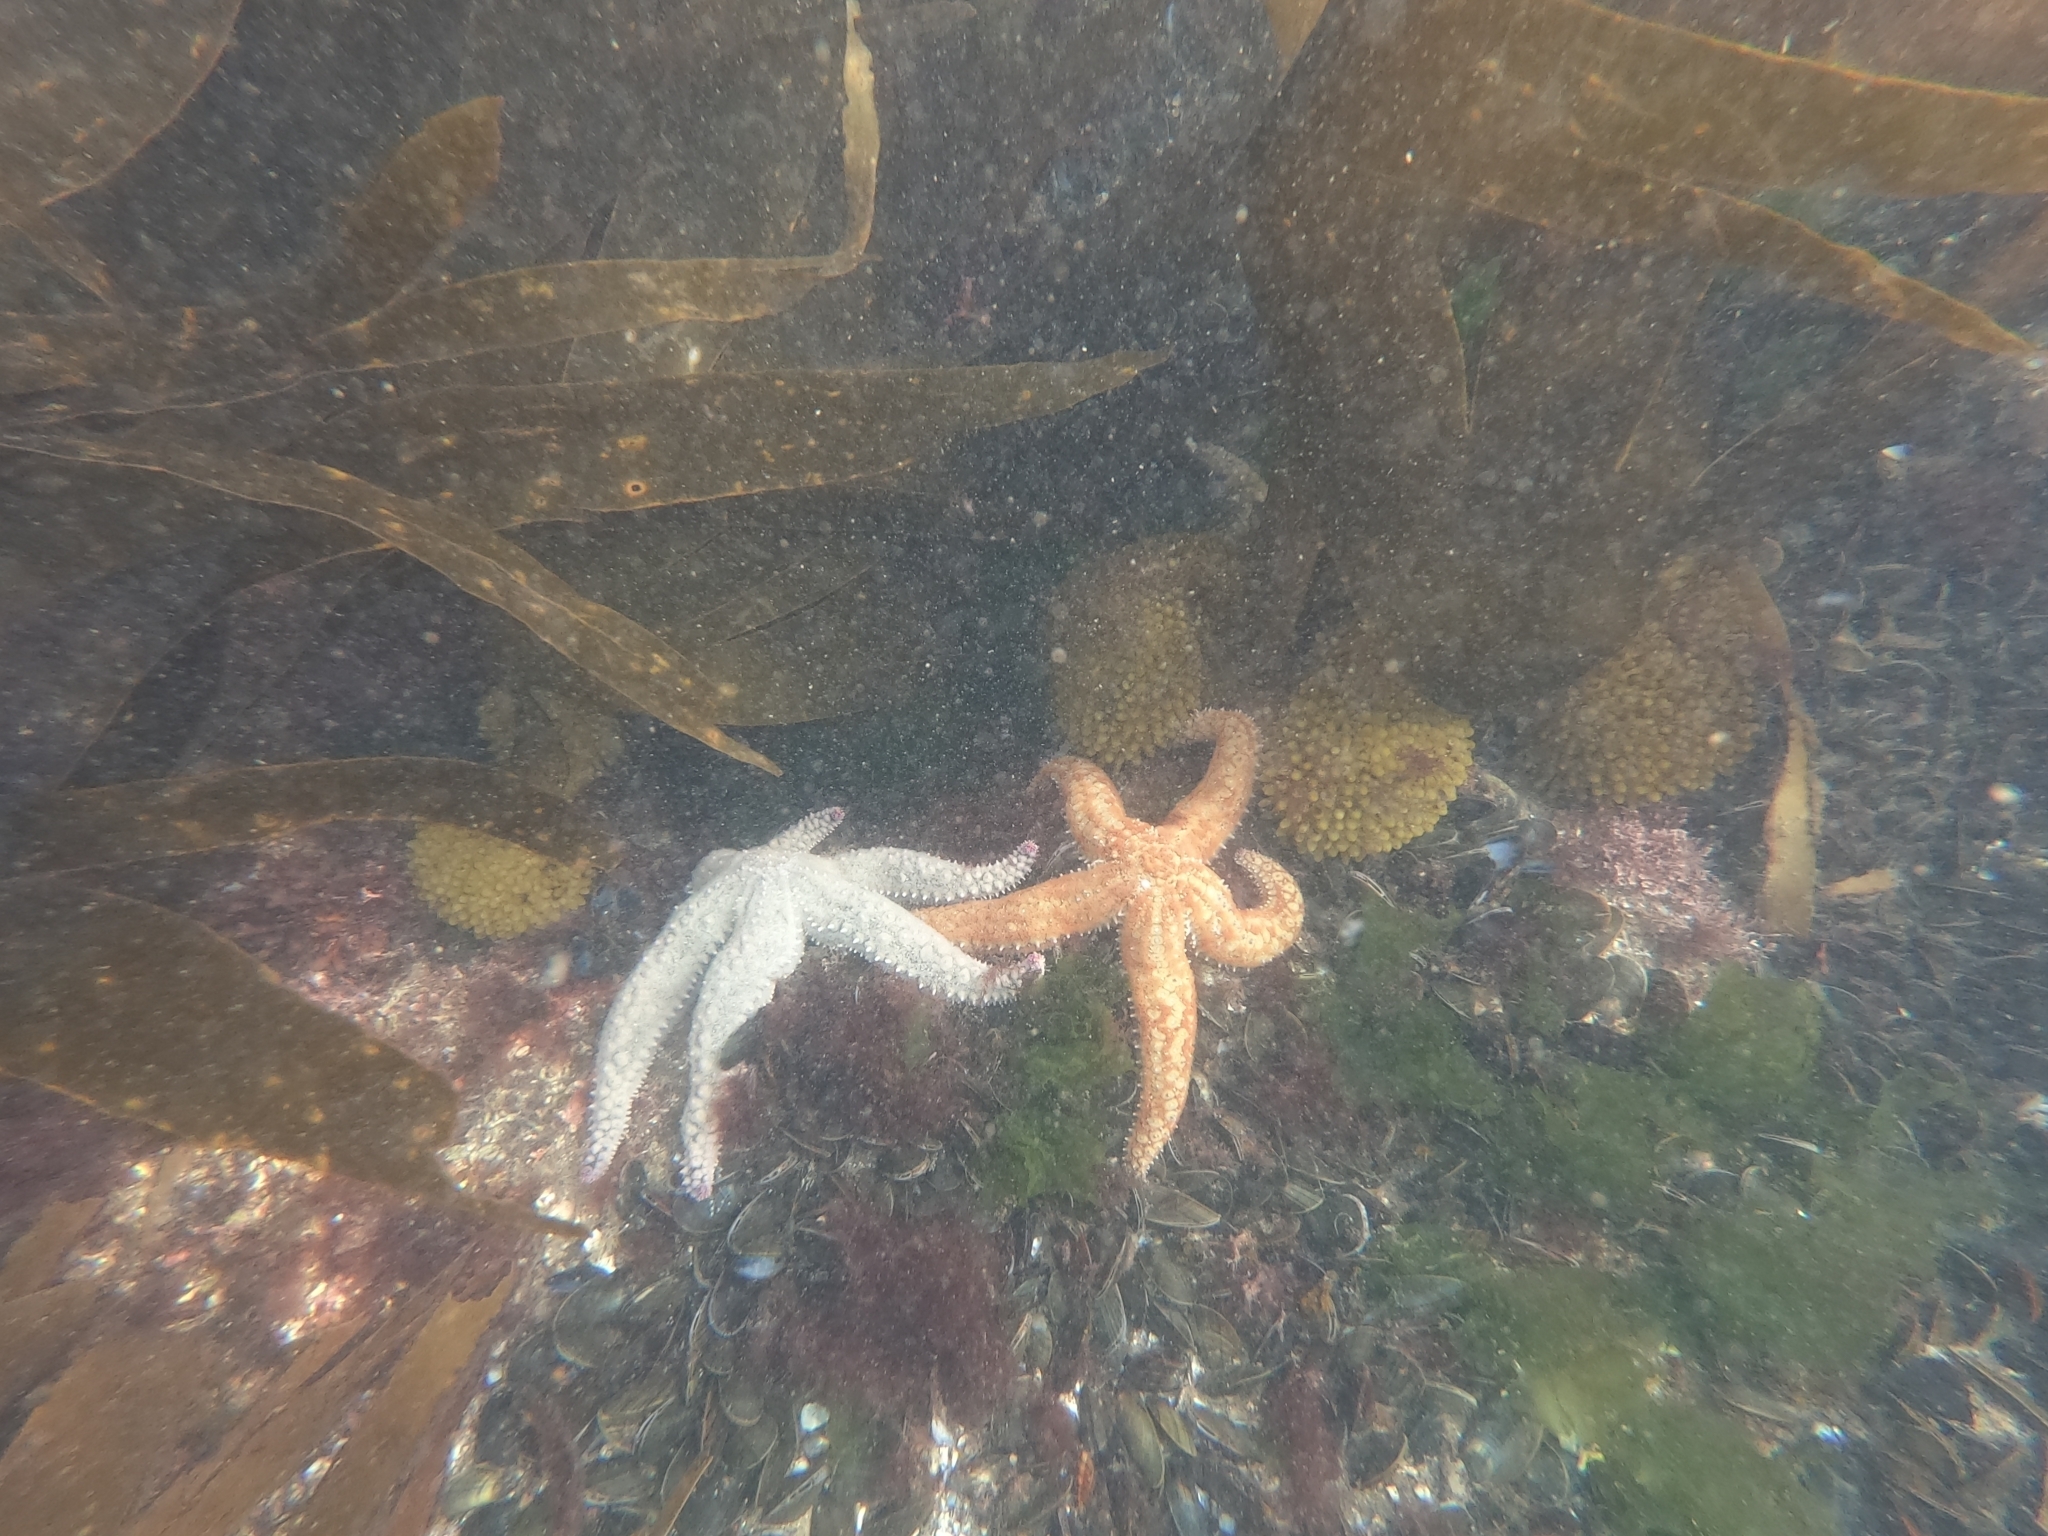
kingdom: Animalia
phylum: Echinodermata
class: Asteroidea
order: Forcipulatida
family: Asteriidae
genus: Marthasterias
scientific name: Marthasterias glacialis
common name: Spiny starfish
